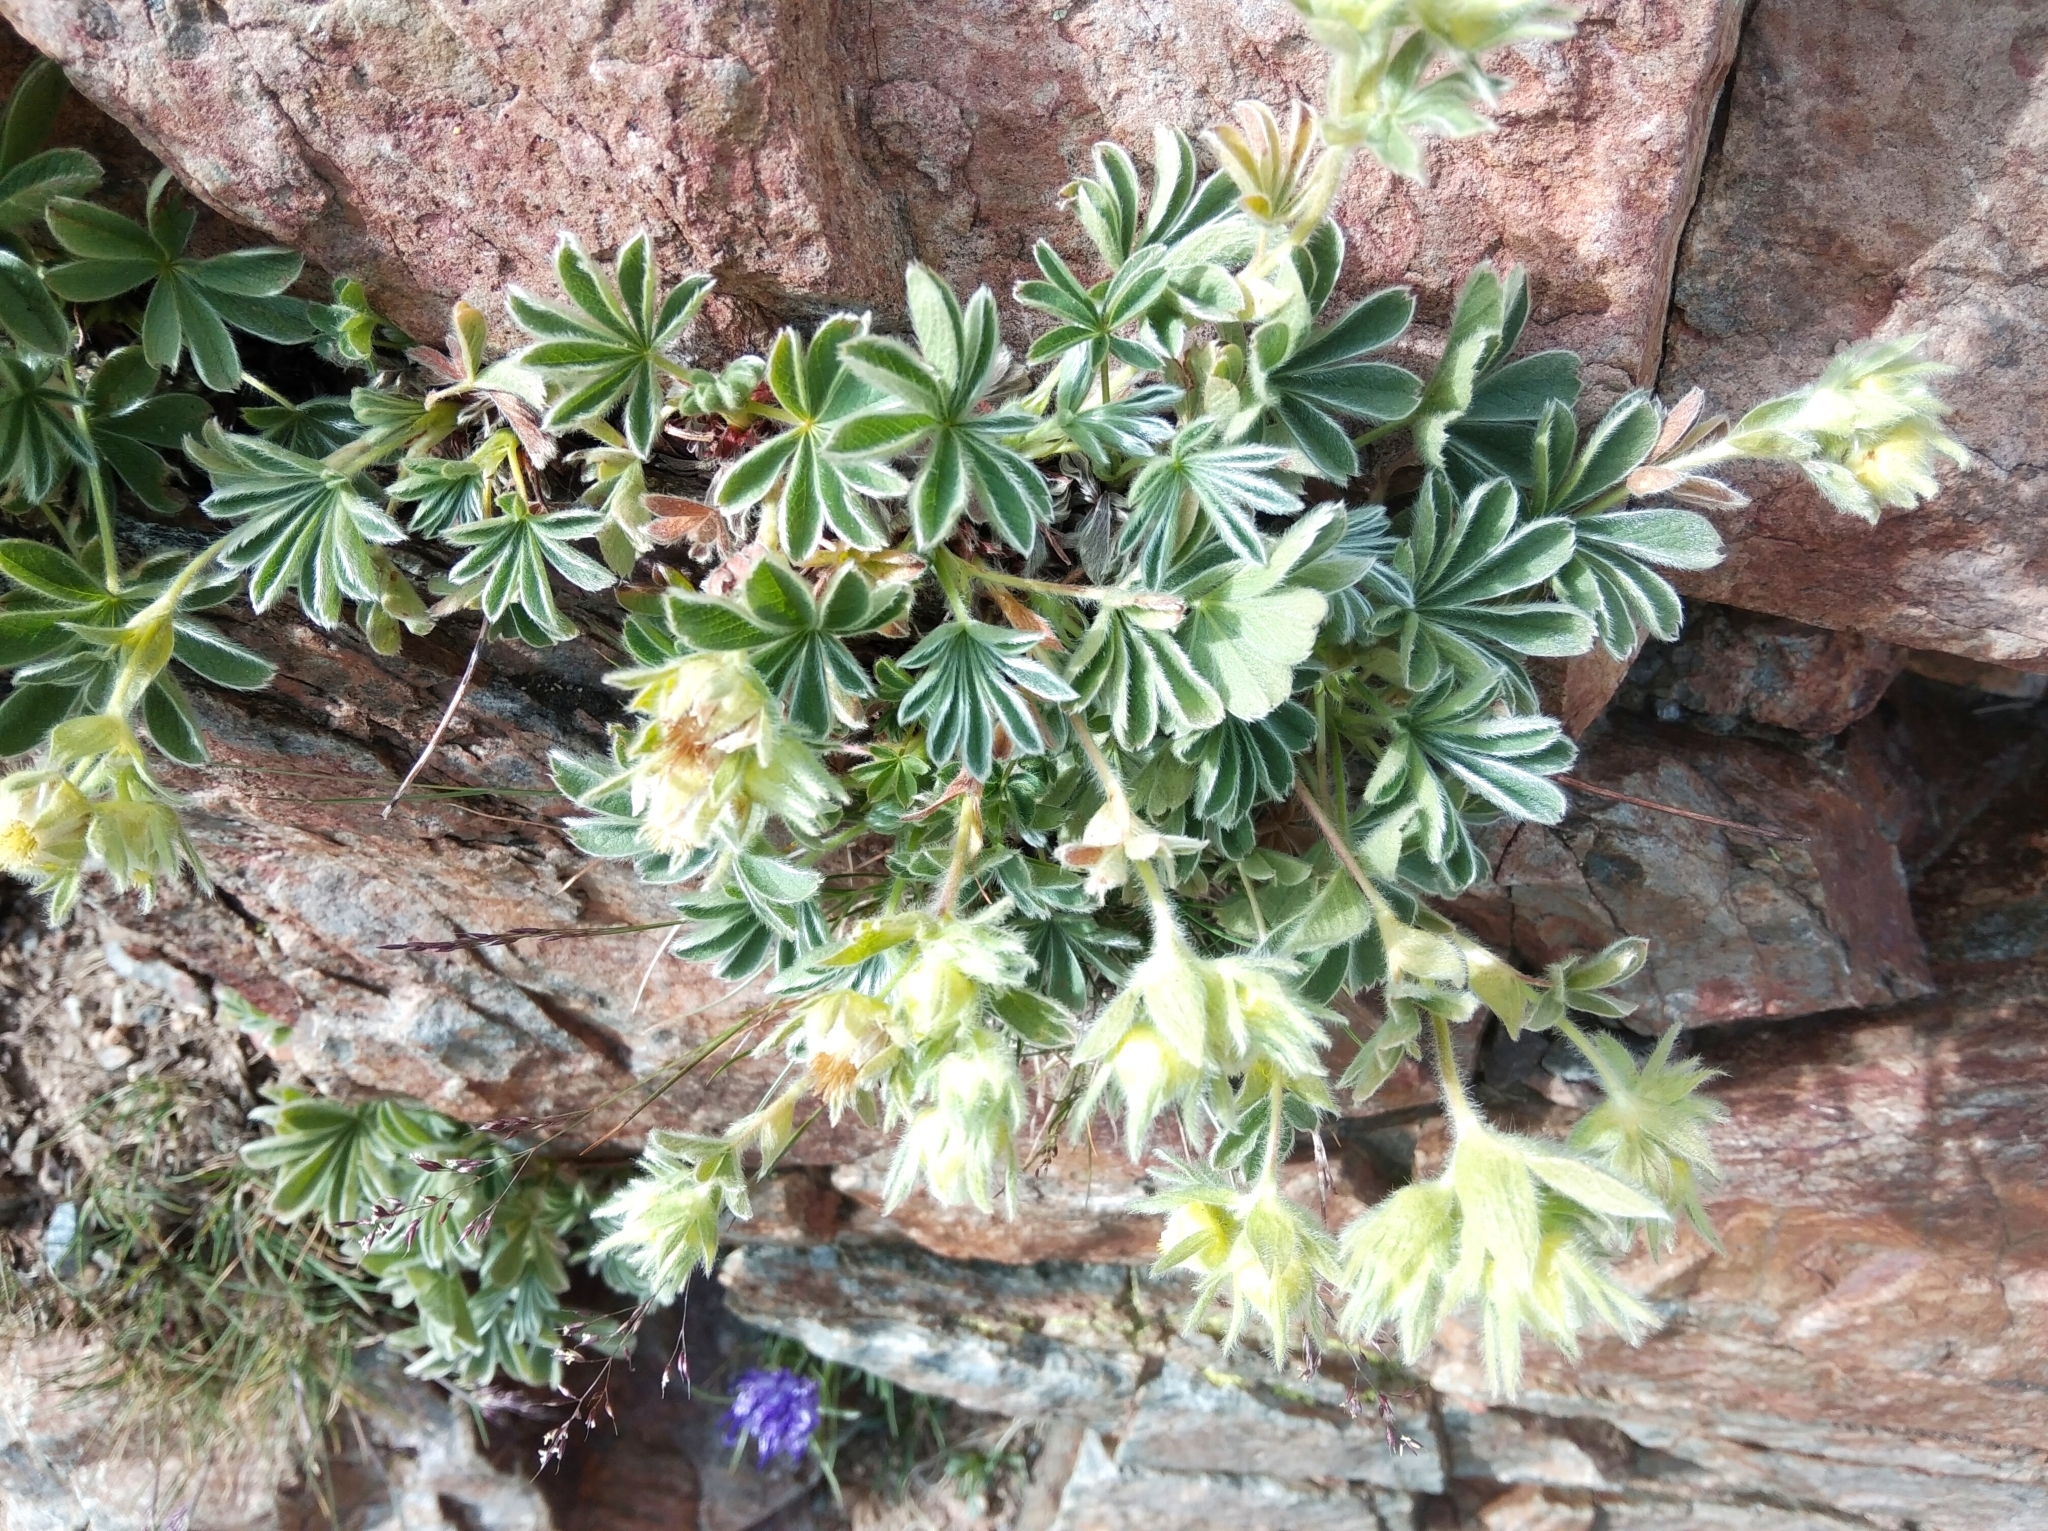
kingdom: Plantae
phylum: Tracheophyta
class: Magnoliopsida
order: Rosales
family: Rosaceae
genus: Potentilla
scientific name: Potentilla nivalis
